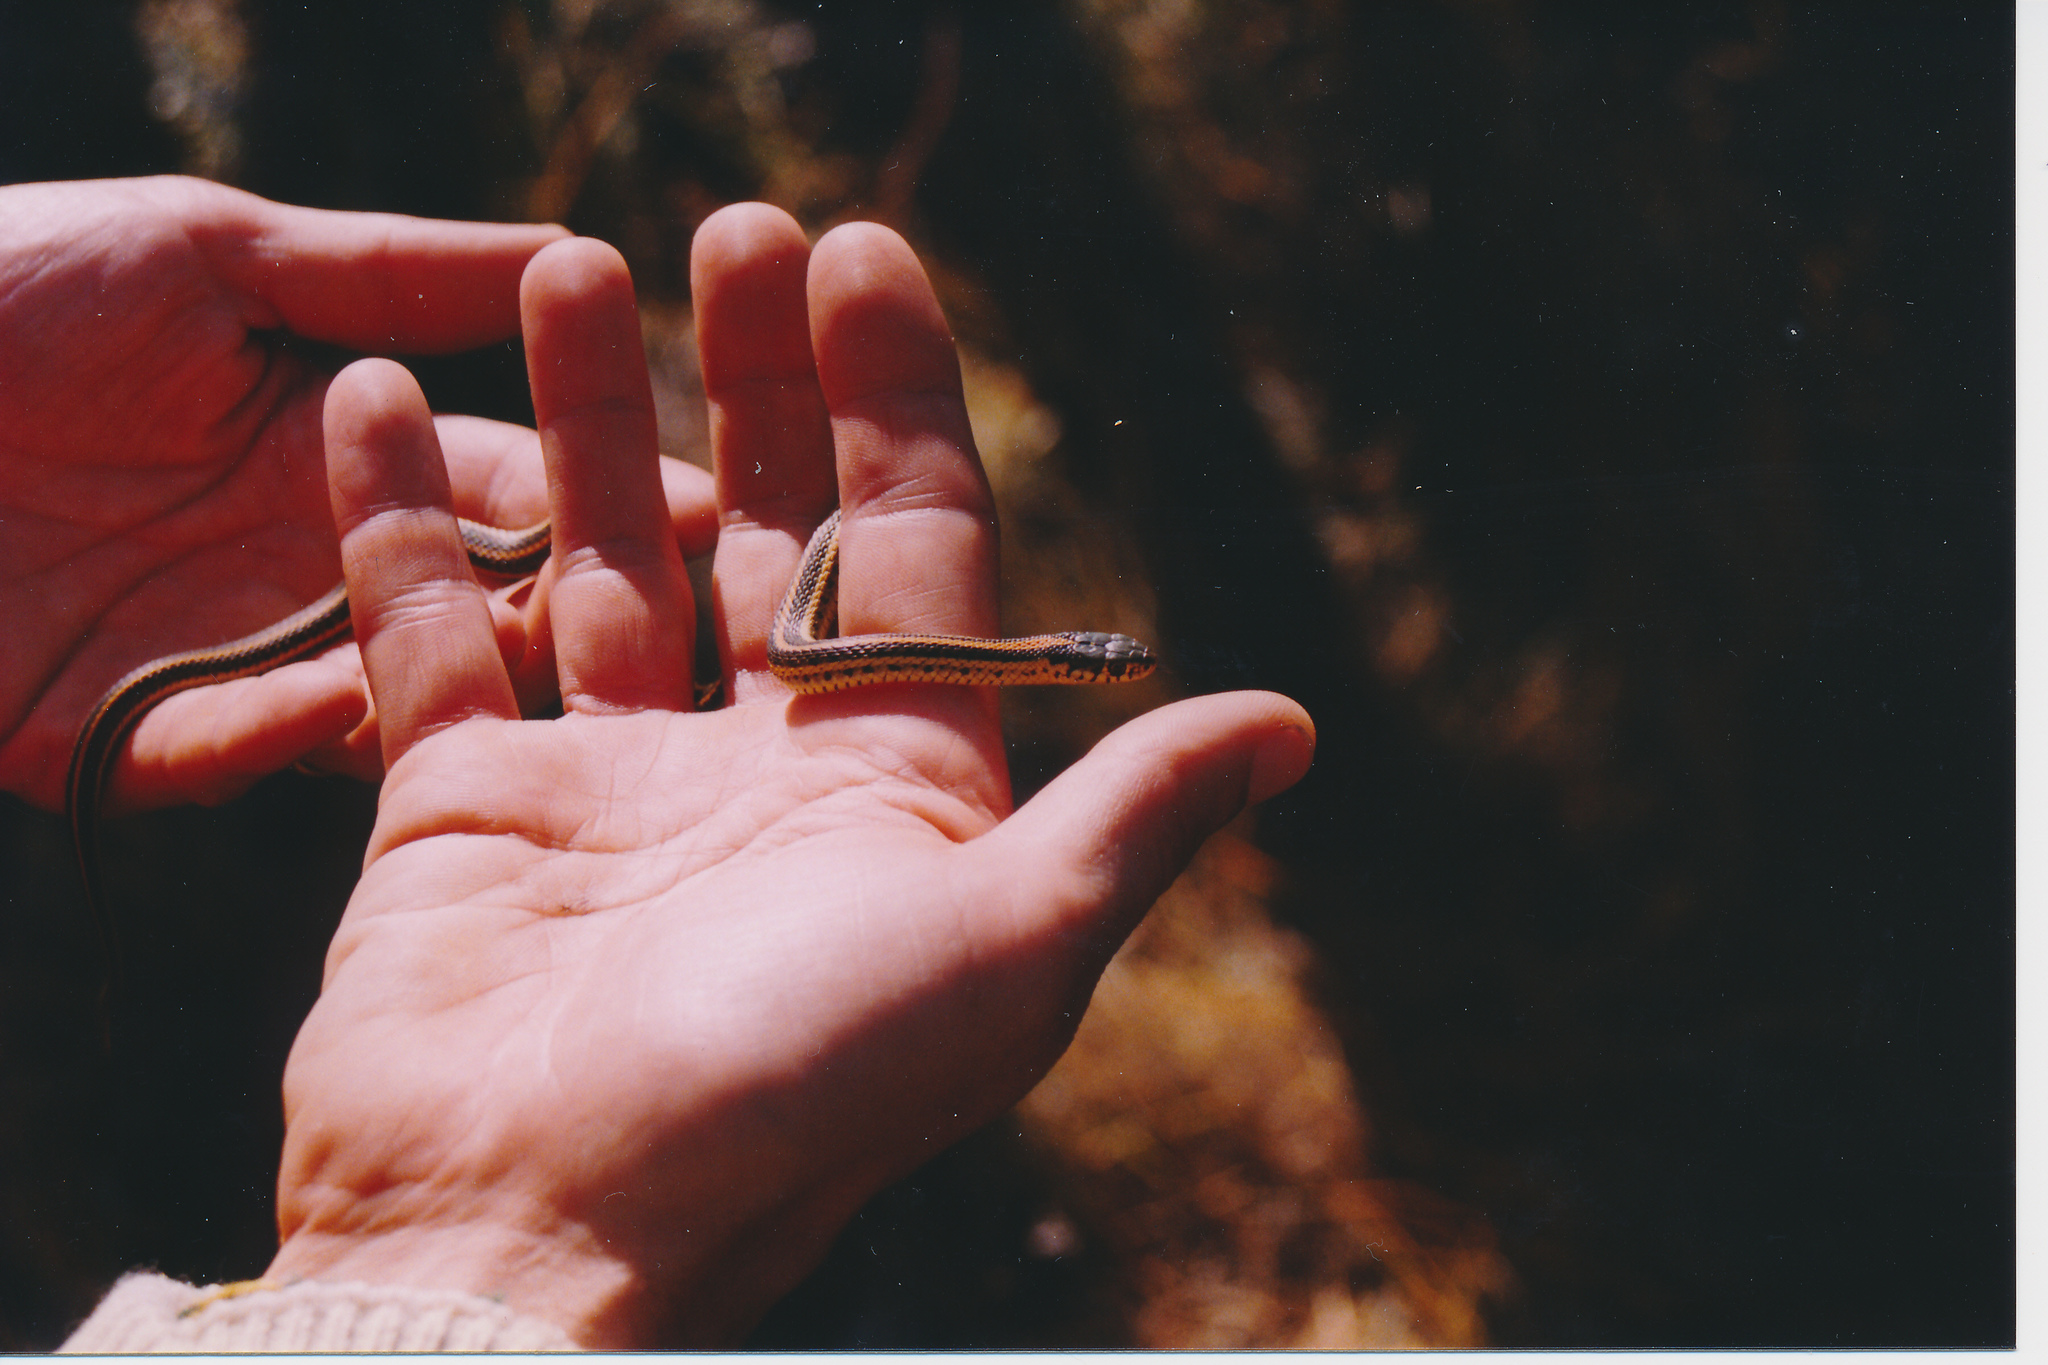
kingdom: Animalia
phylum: Chordata
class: Squamata
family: Colubridae
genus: Thamnophis
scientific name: Thamnophis radix
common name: Plains garter snake
